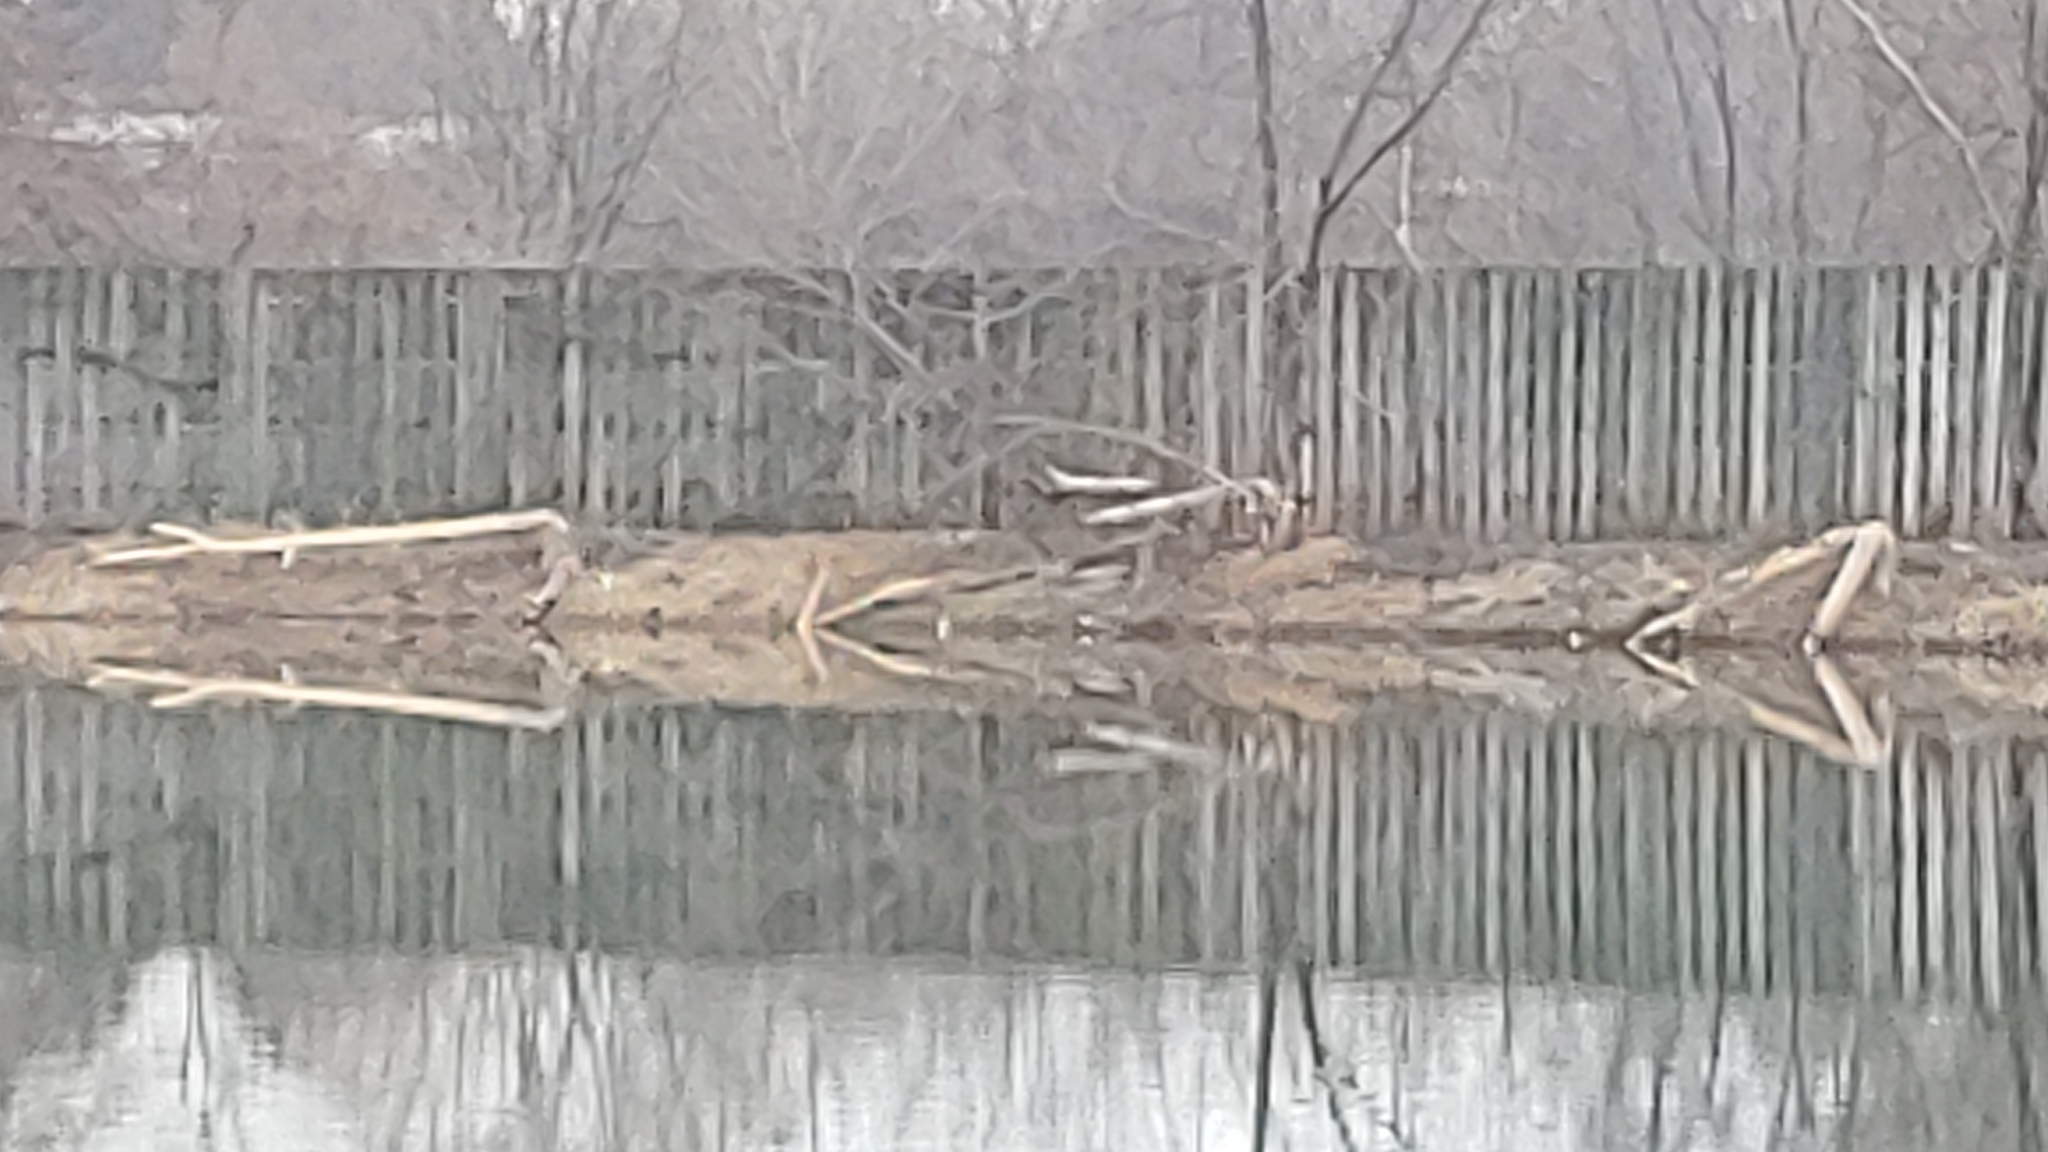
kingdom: Animalia
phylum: Chordata
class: Mammalia
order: Rodentia
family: Castoridae
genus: Castor
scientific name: Castor canadensis
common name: American beaver
